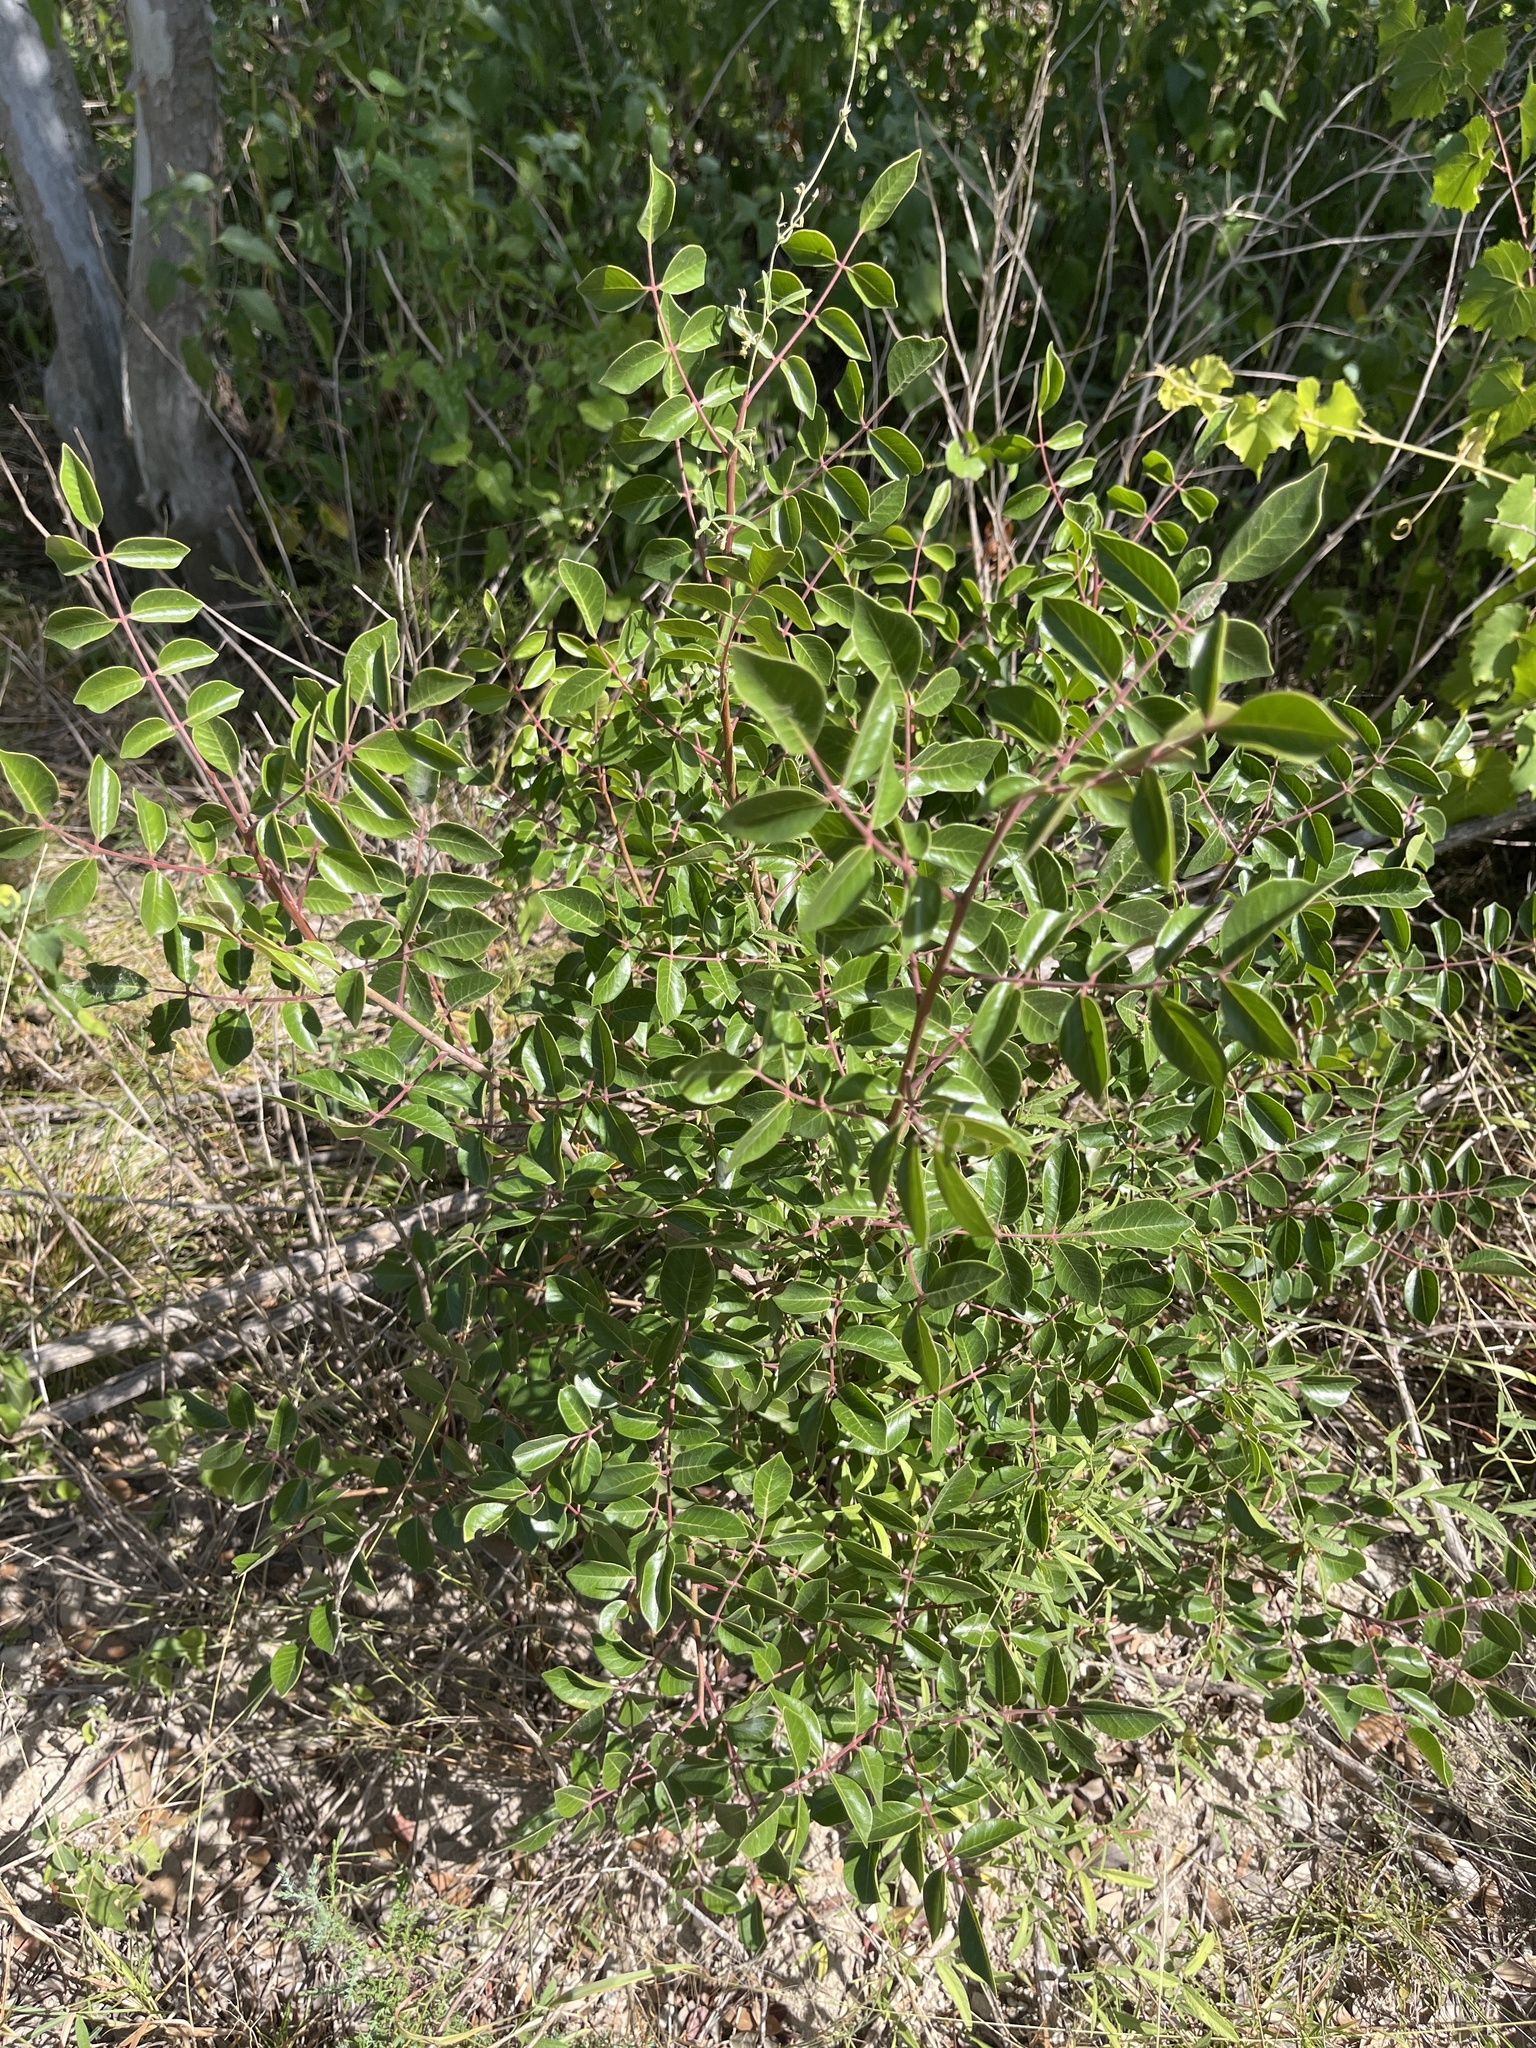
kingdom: Plantae
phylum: Tracheophyta
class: Magnoliopsida
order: Sapindales
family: Anacardiaceae
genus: Rhus
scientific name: Rhus virens
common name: Evergreen sumac
